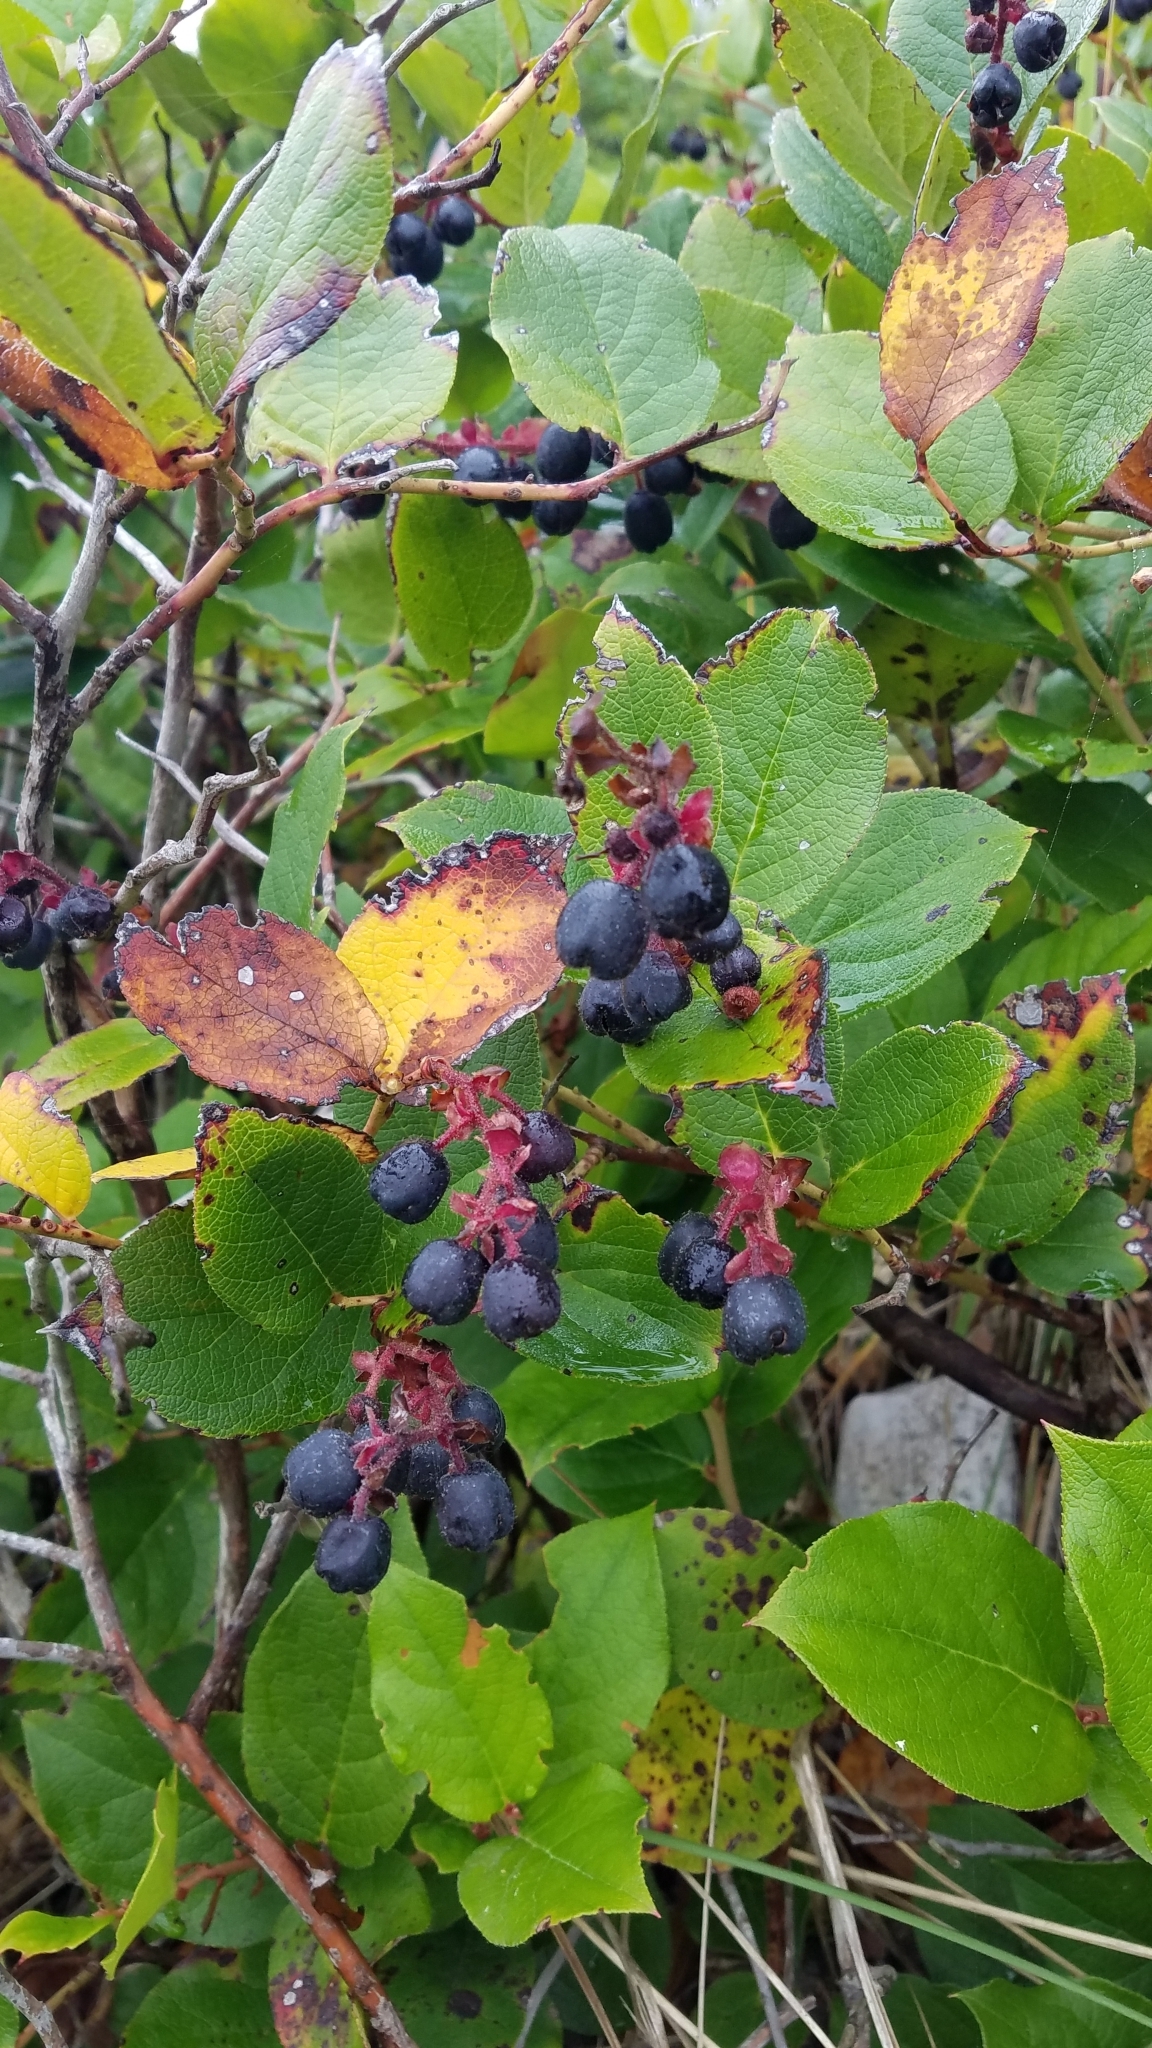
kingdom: Plantae
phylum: Tracheophyta
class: Magnoliopsida
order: Ericales
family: Ericaceae
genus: Gaultheria
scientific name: Gaultheria shallon
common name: Shallon
